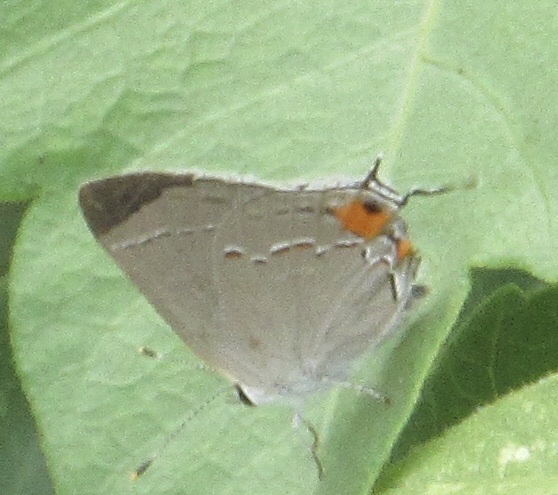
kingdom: Animalia
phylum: Arthropoda
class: Insecta
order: Lepidoptera
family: Lycaenidae
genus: Strymon
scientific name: Strymon melinus
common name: Gray hairstreak
